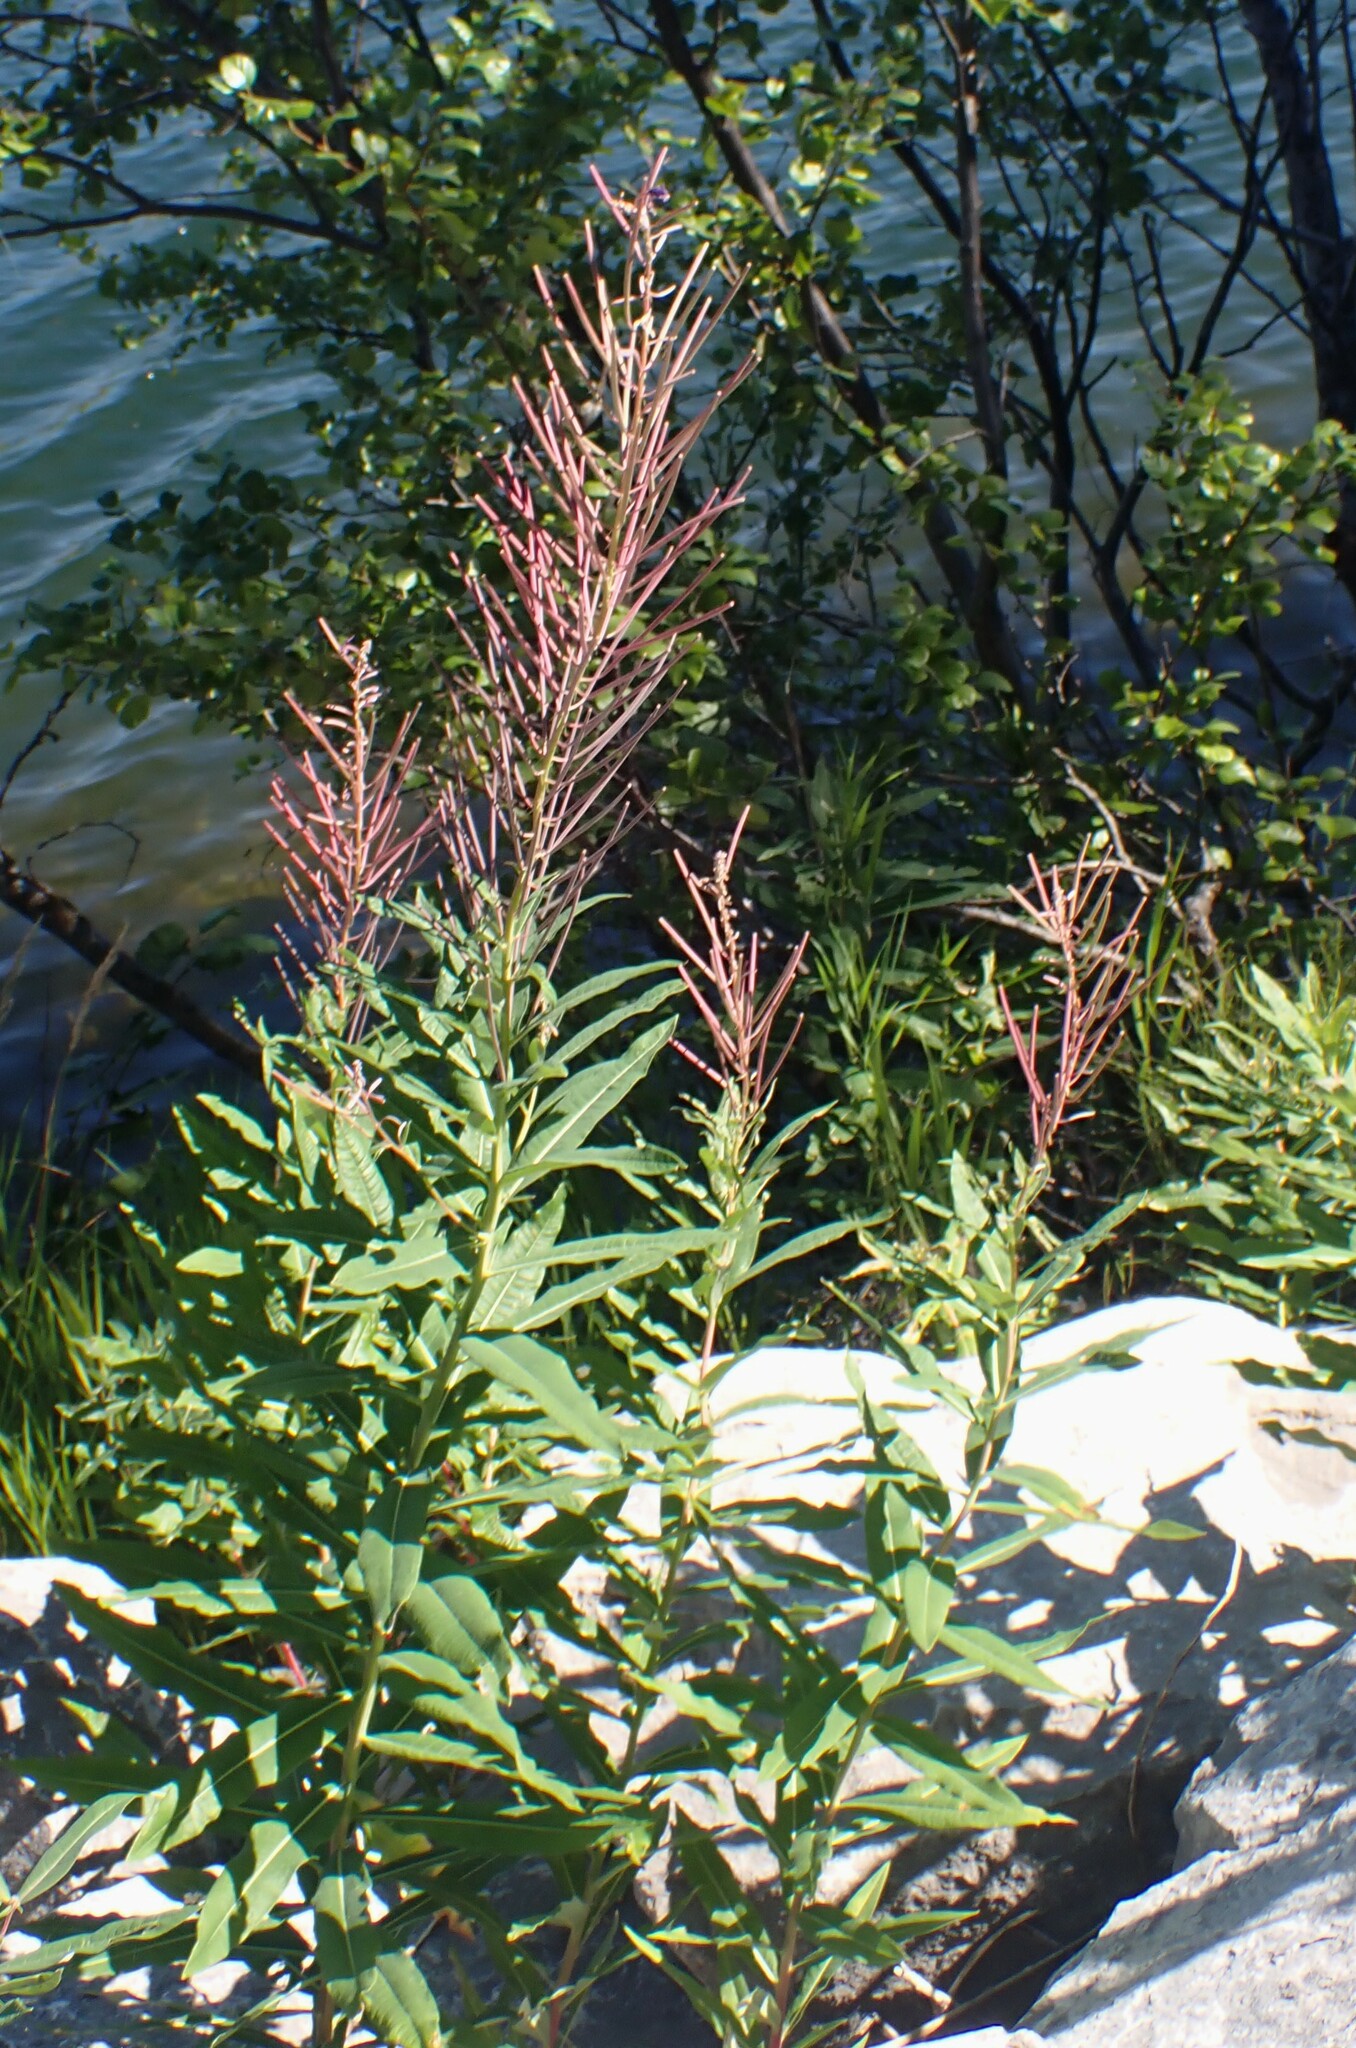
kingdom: Plantae
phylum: Tracheophyta
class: Magnoliopsida
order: Myrtales
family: Onagraceae
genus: Chamaenerion
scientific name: Chamaenerion angustifolium
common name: Fireweed
